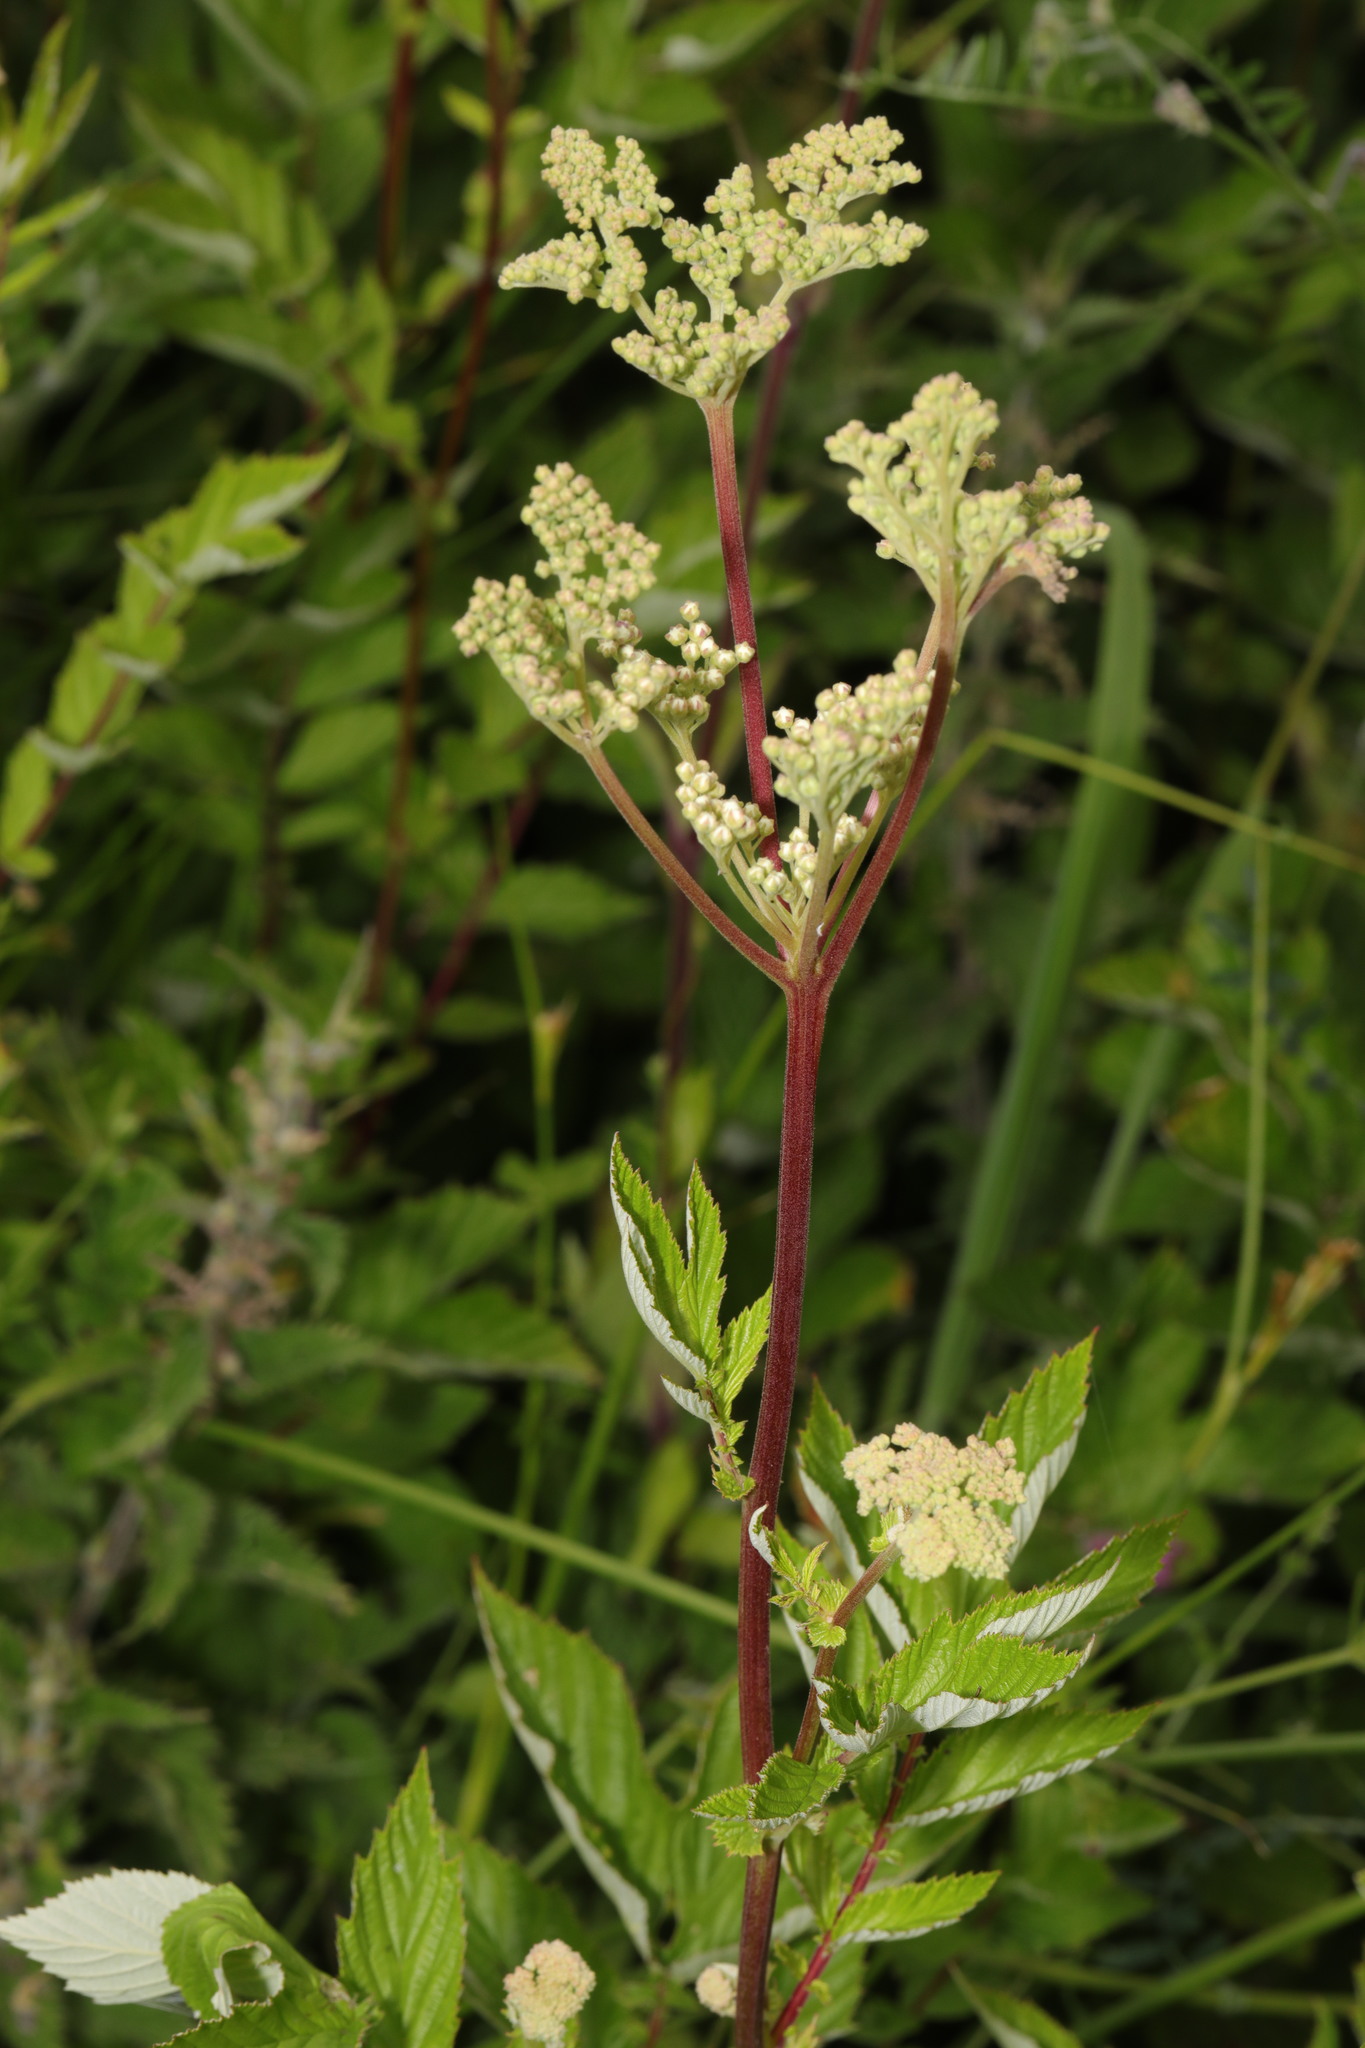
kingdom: Plantae
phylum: Tracheophyta
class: Magnoliopsida
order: Rosales
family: Rosaceae
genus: Filipendula
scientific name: Filipendula ulmaria
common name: Meadowsweet
